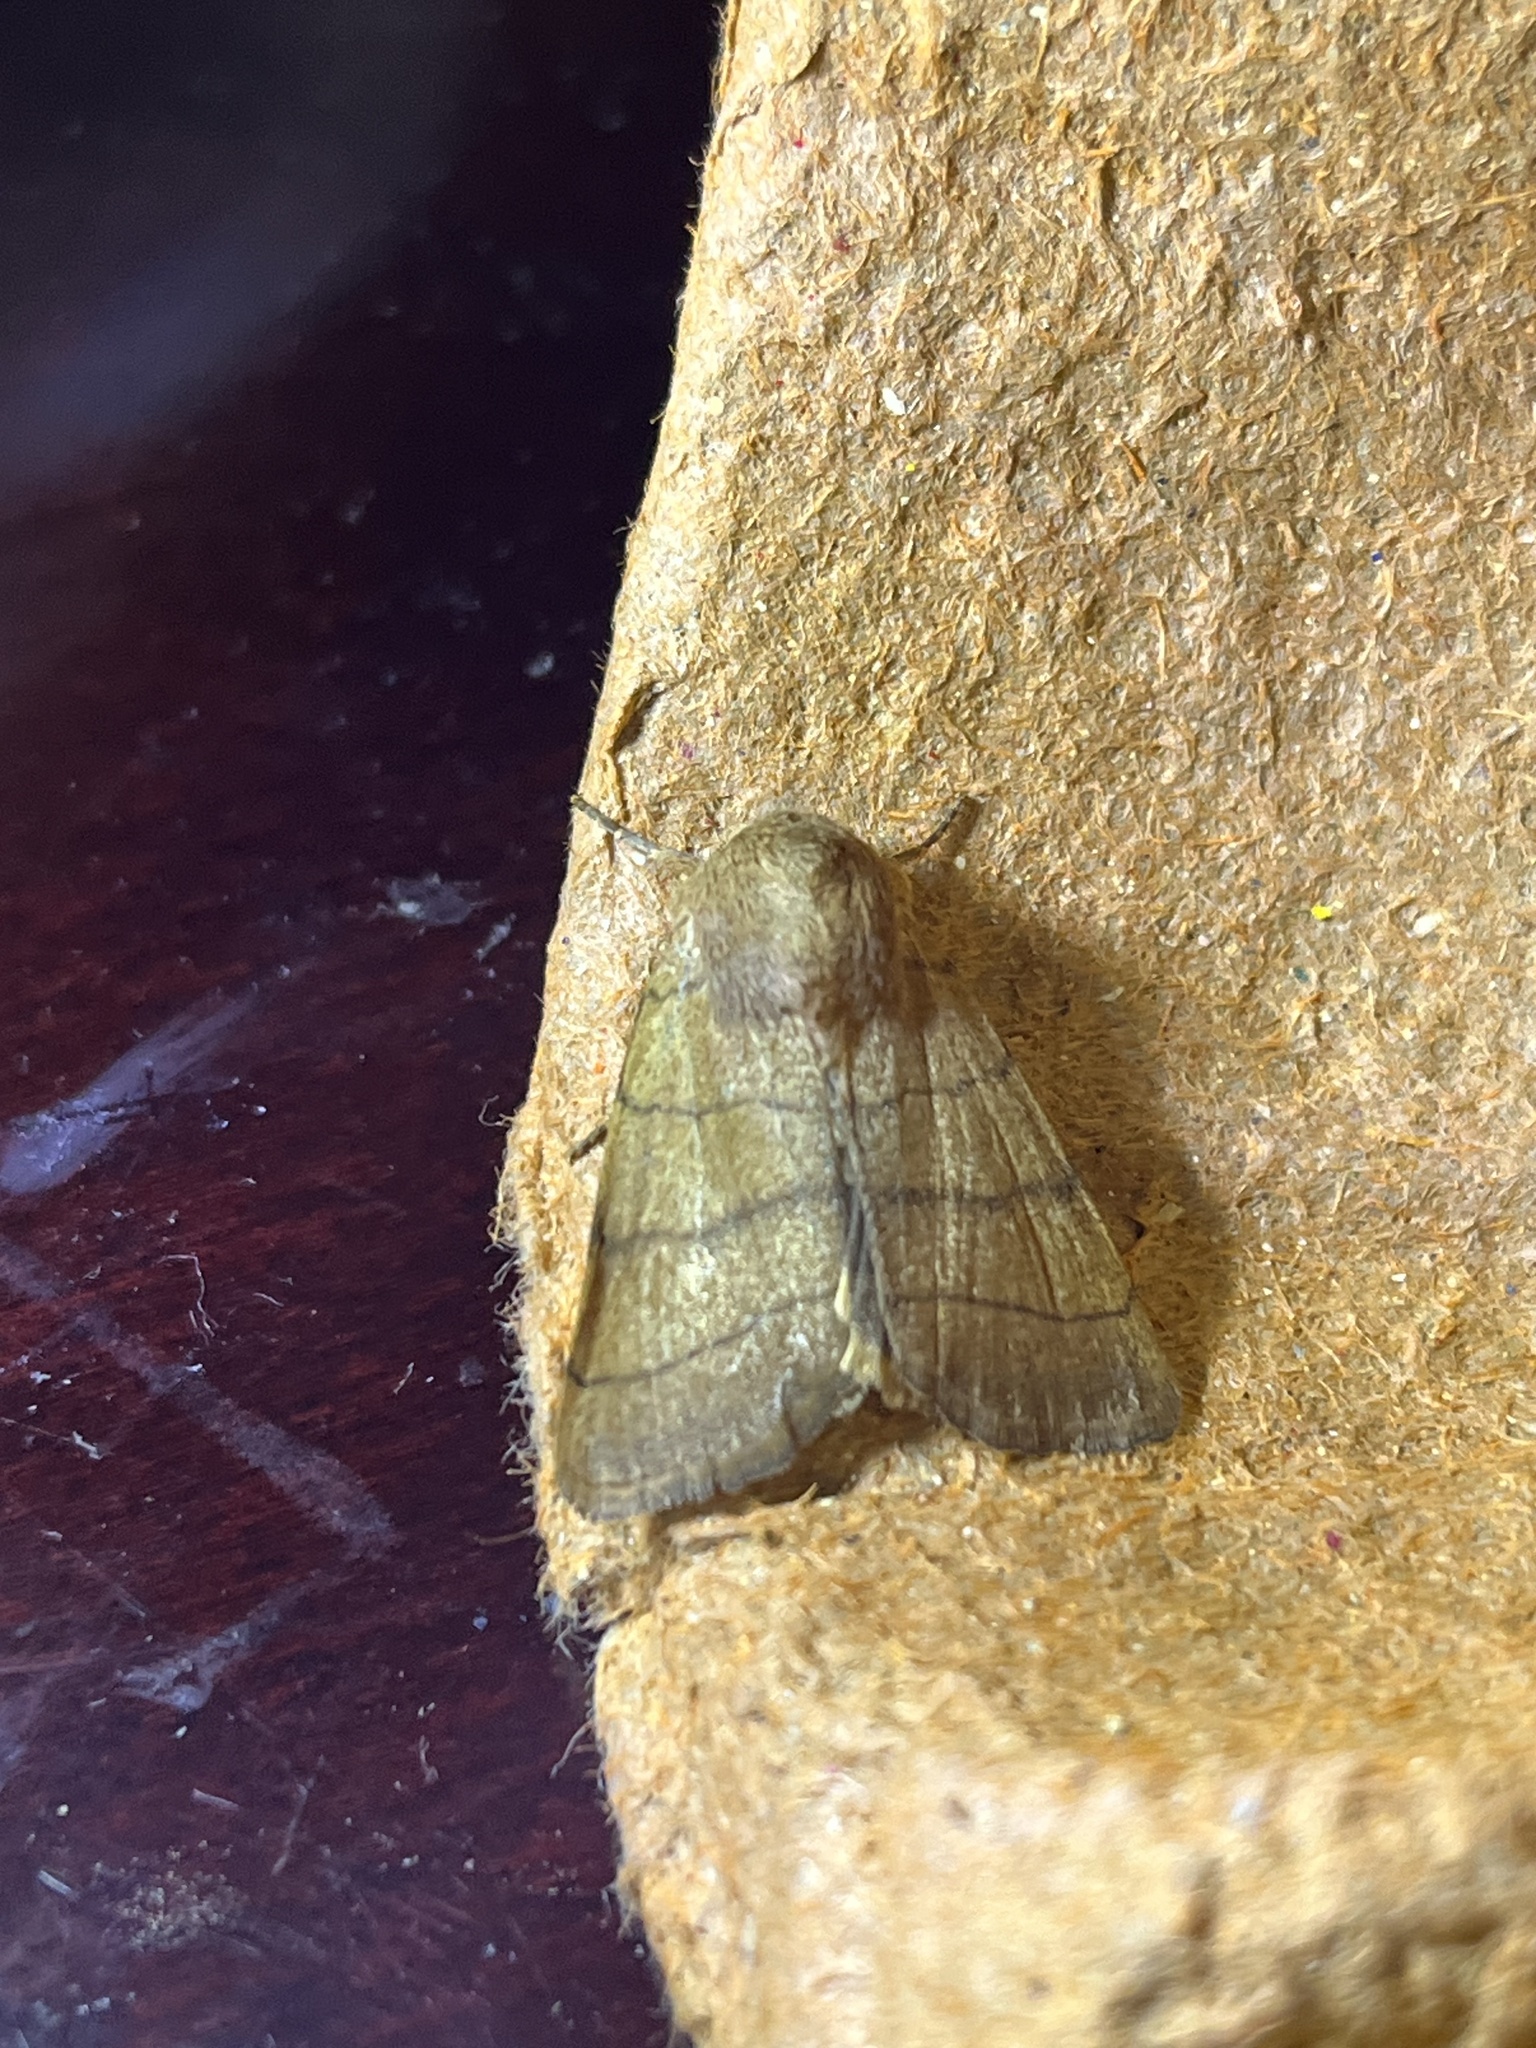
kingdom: Animalia
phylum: Arthropoda
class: Insecta
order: Lepidoptera
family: Noctuidae
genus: Charanyca
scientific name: Charanyca trigrammica
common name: Treble lines
